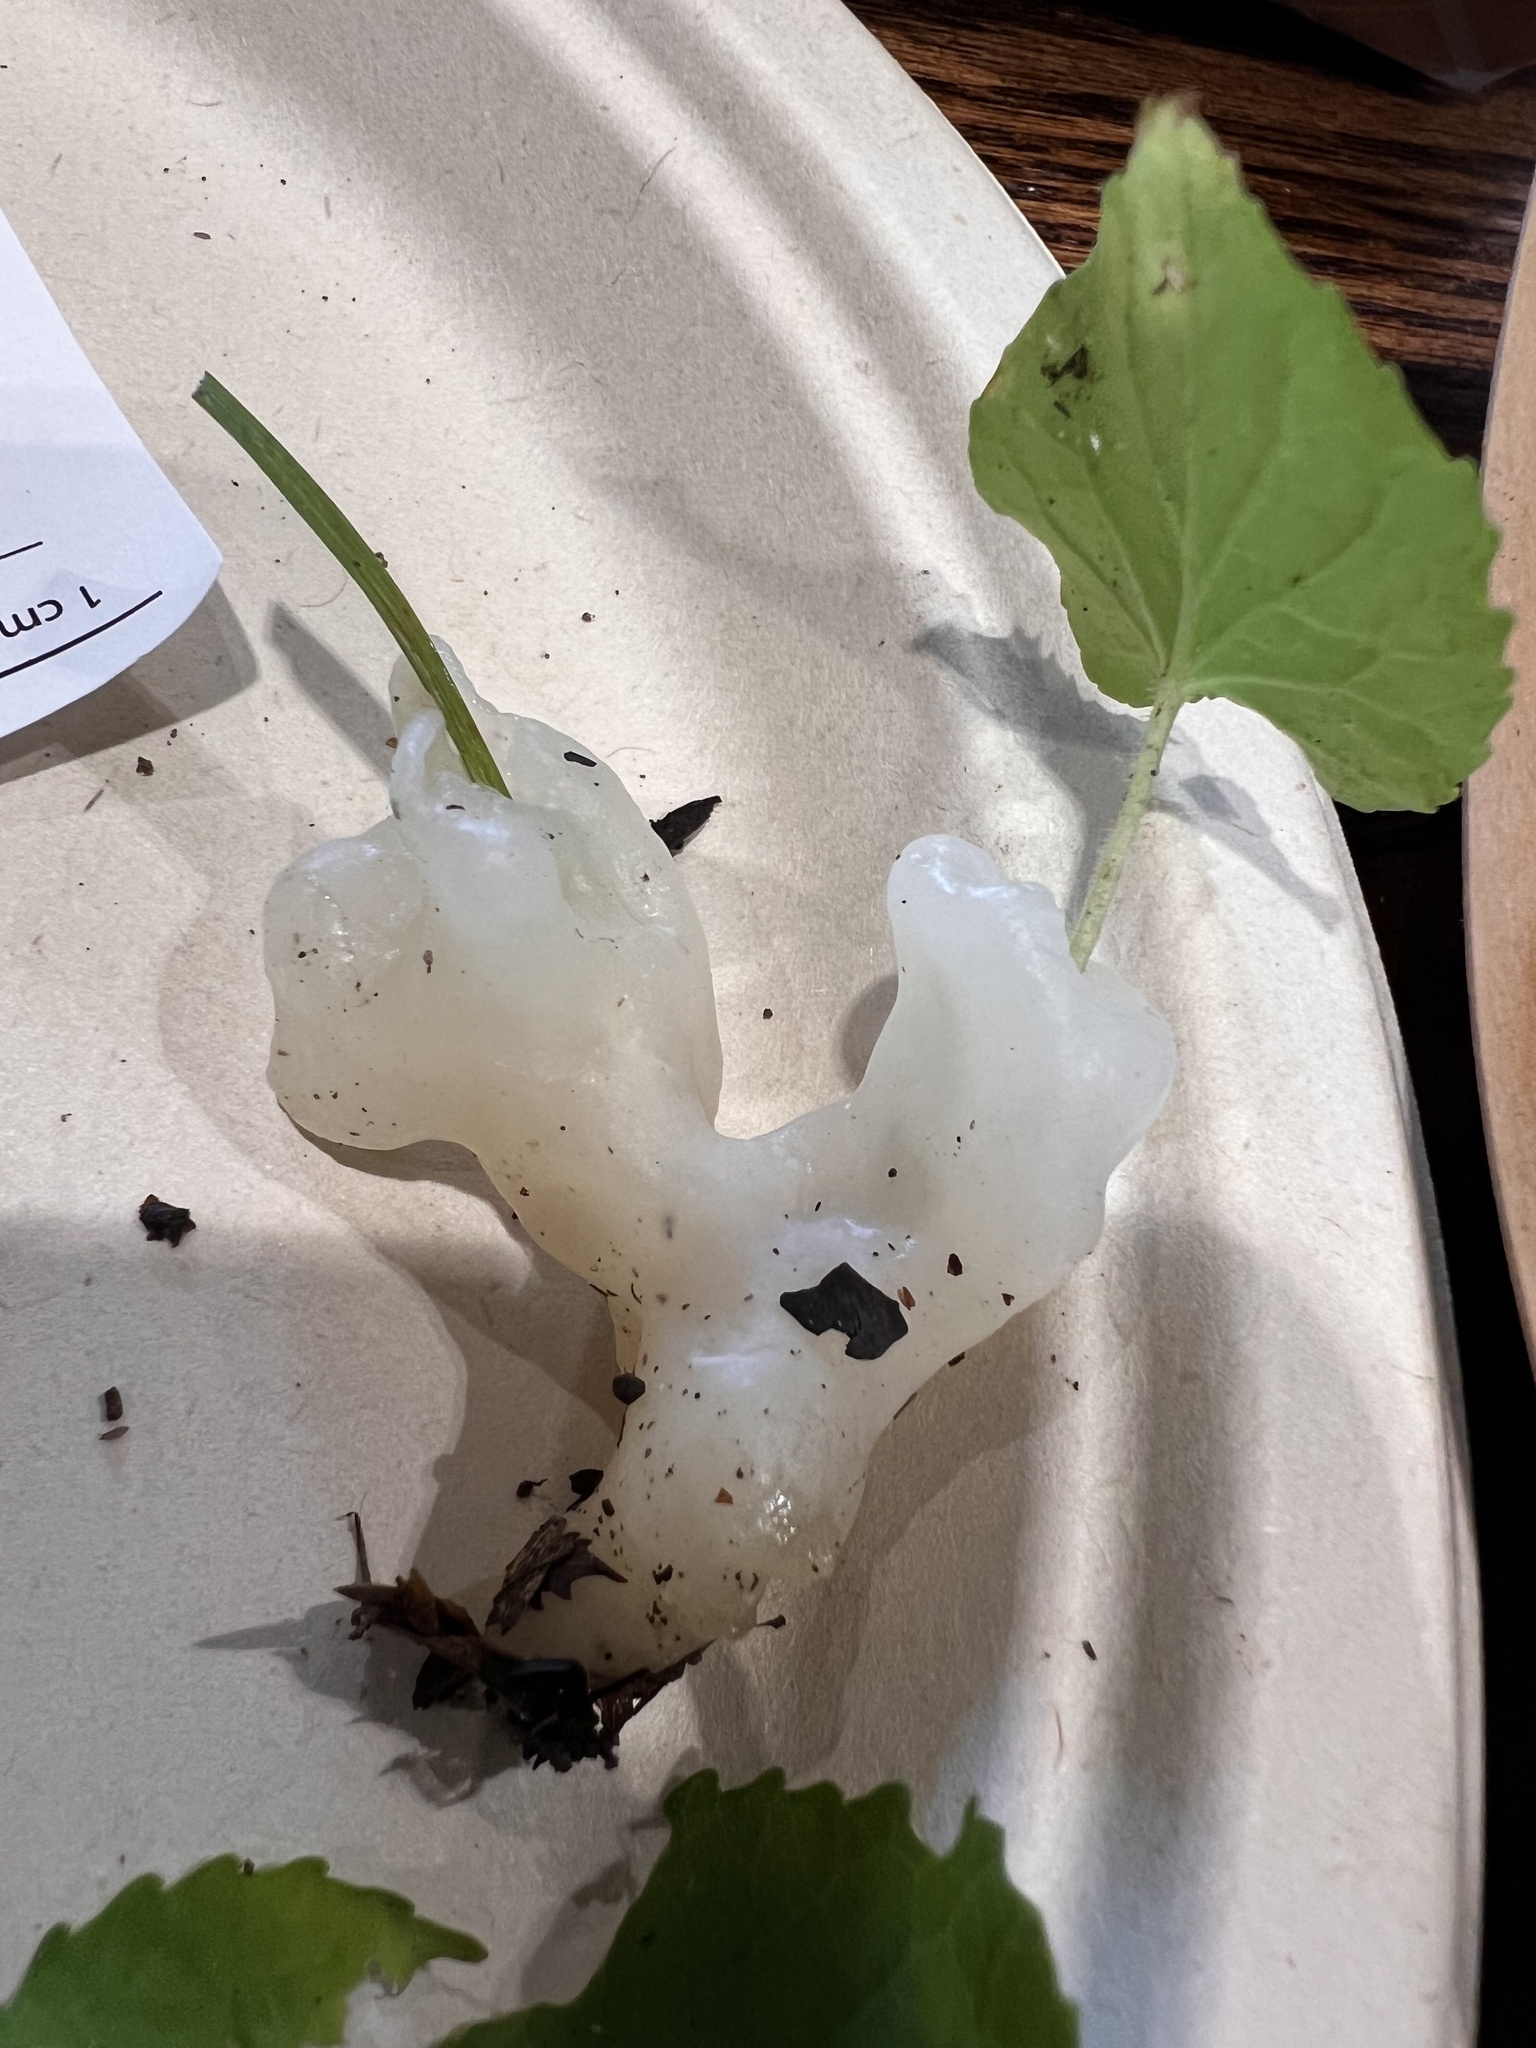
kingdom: Fungi
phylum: Basidiomycota
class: Agaricomycetes
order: Sebacinales
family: Sebacinaceae
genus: Helvellosebacina
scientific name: Helvellosebacina concrescens
